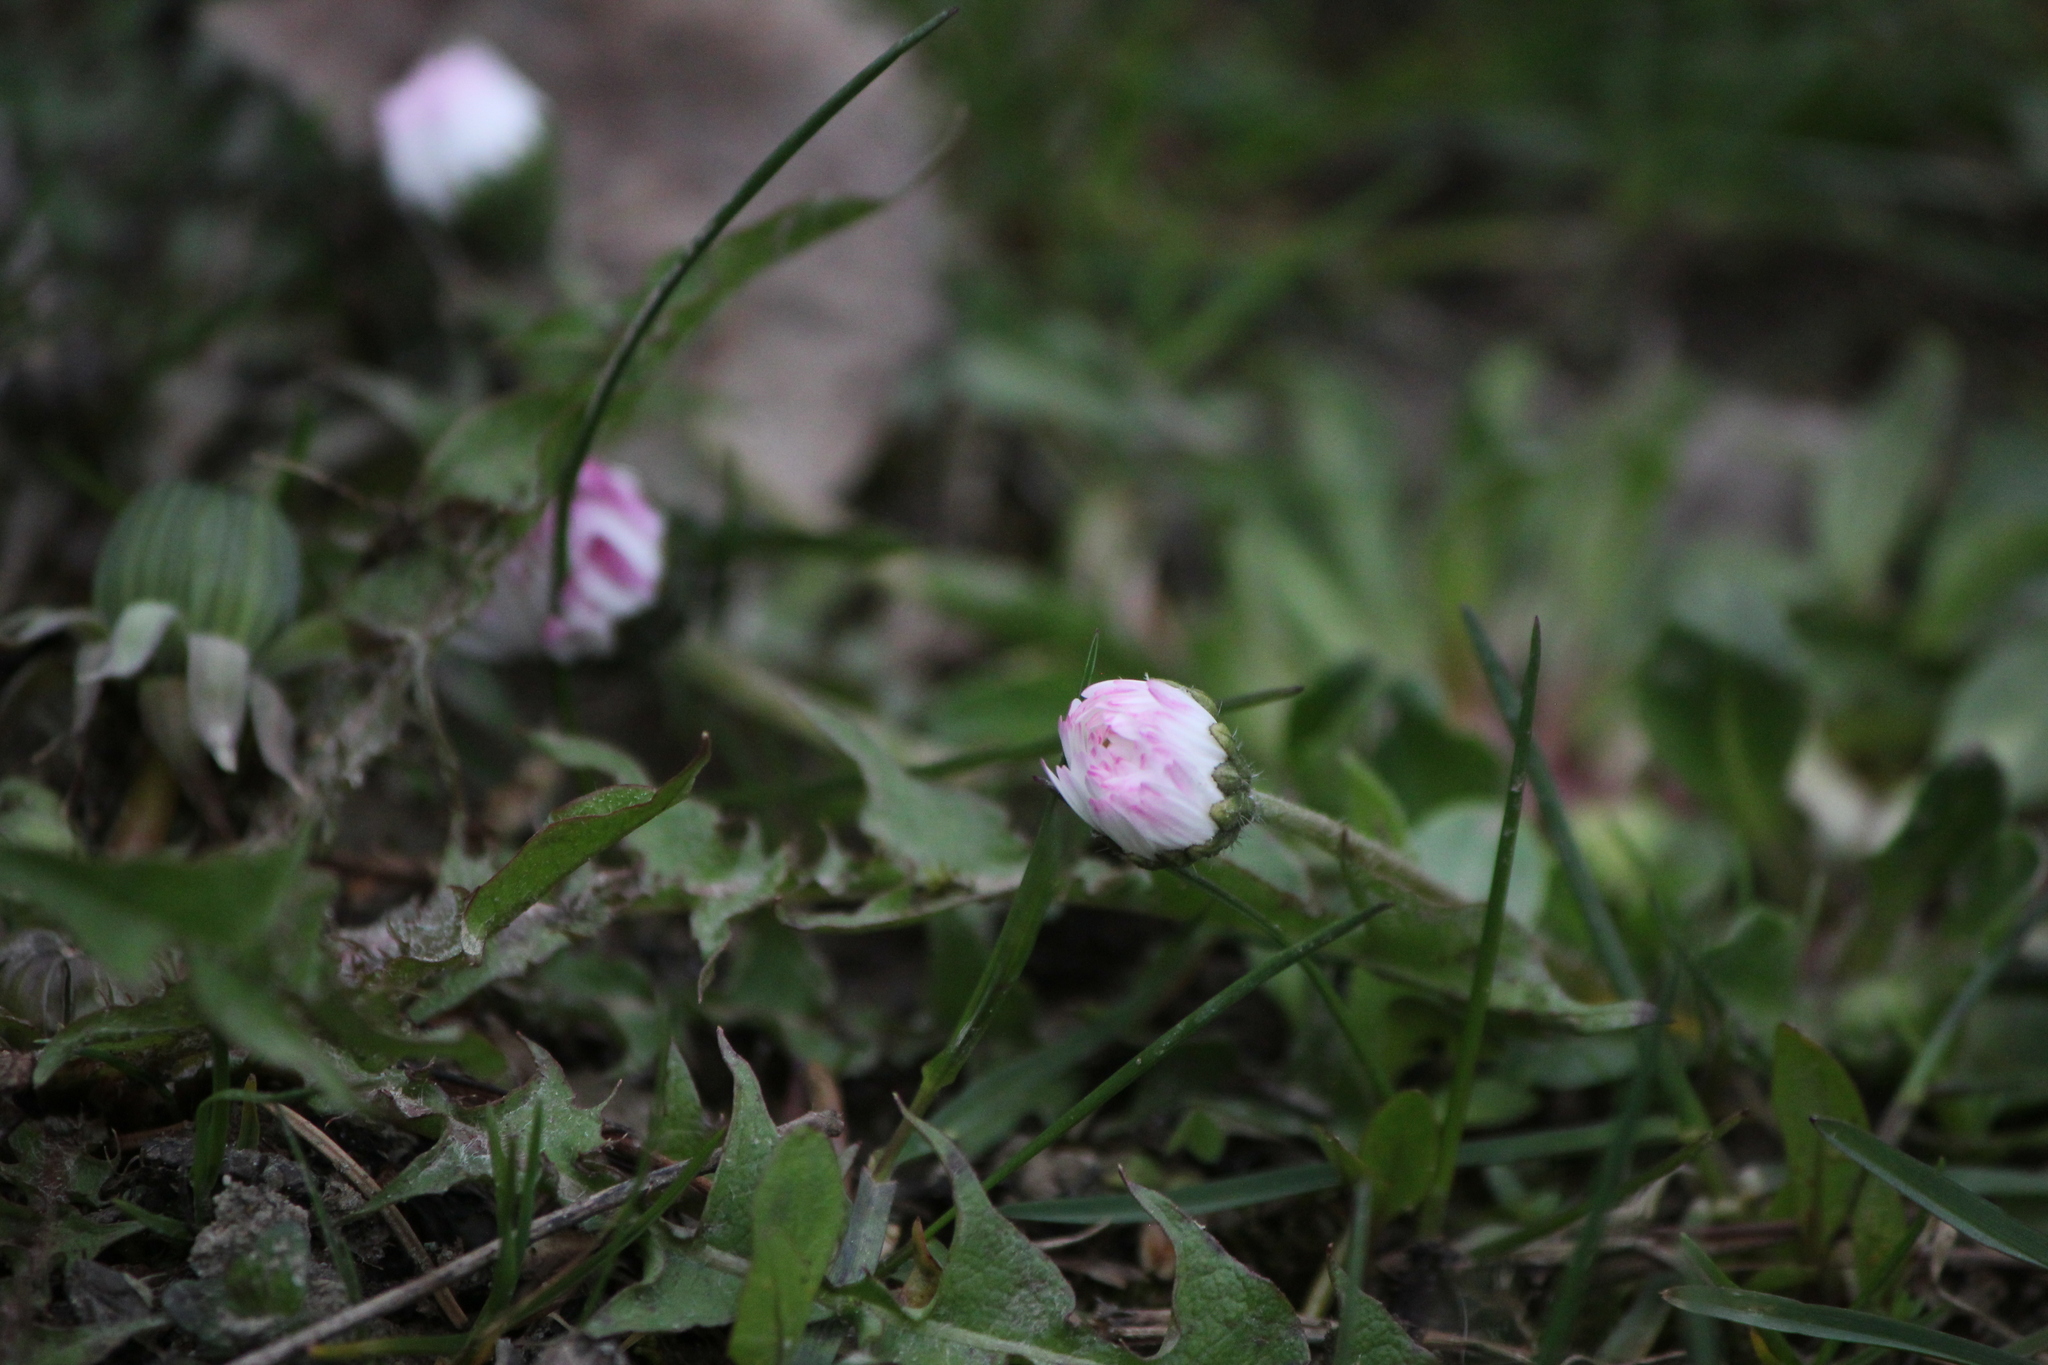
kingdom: Plantae
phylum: Tracheophyta
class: Magnoliopsida
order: Asterales
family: Asteraceae
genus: Bellis
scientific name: Bellis perennis
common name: Lawndaisy
